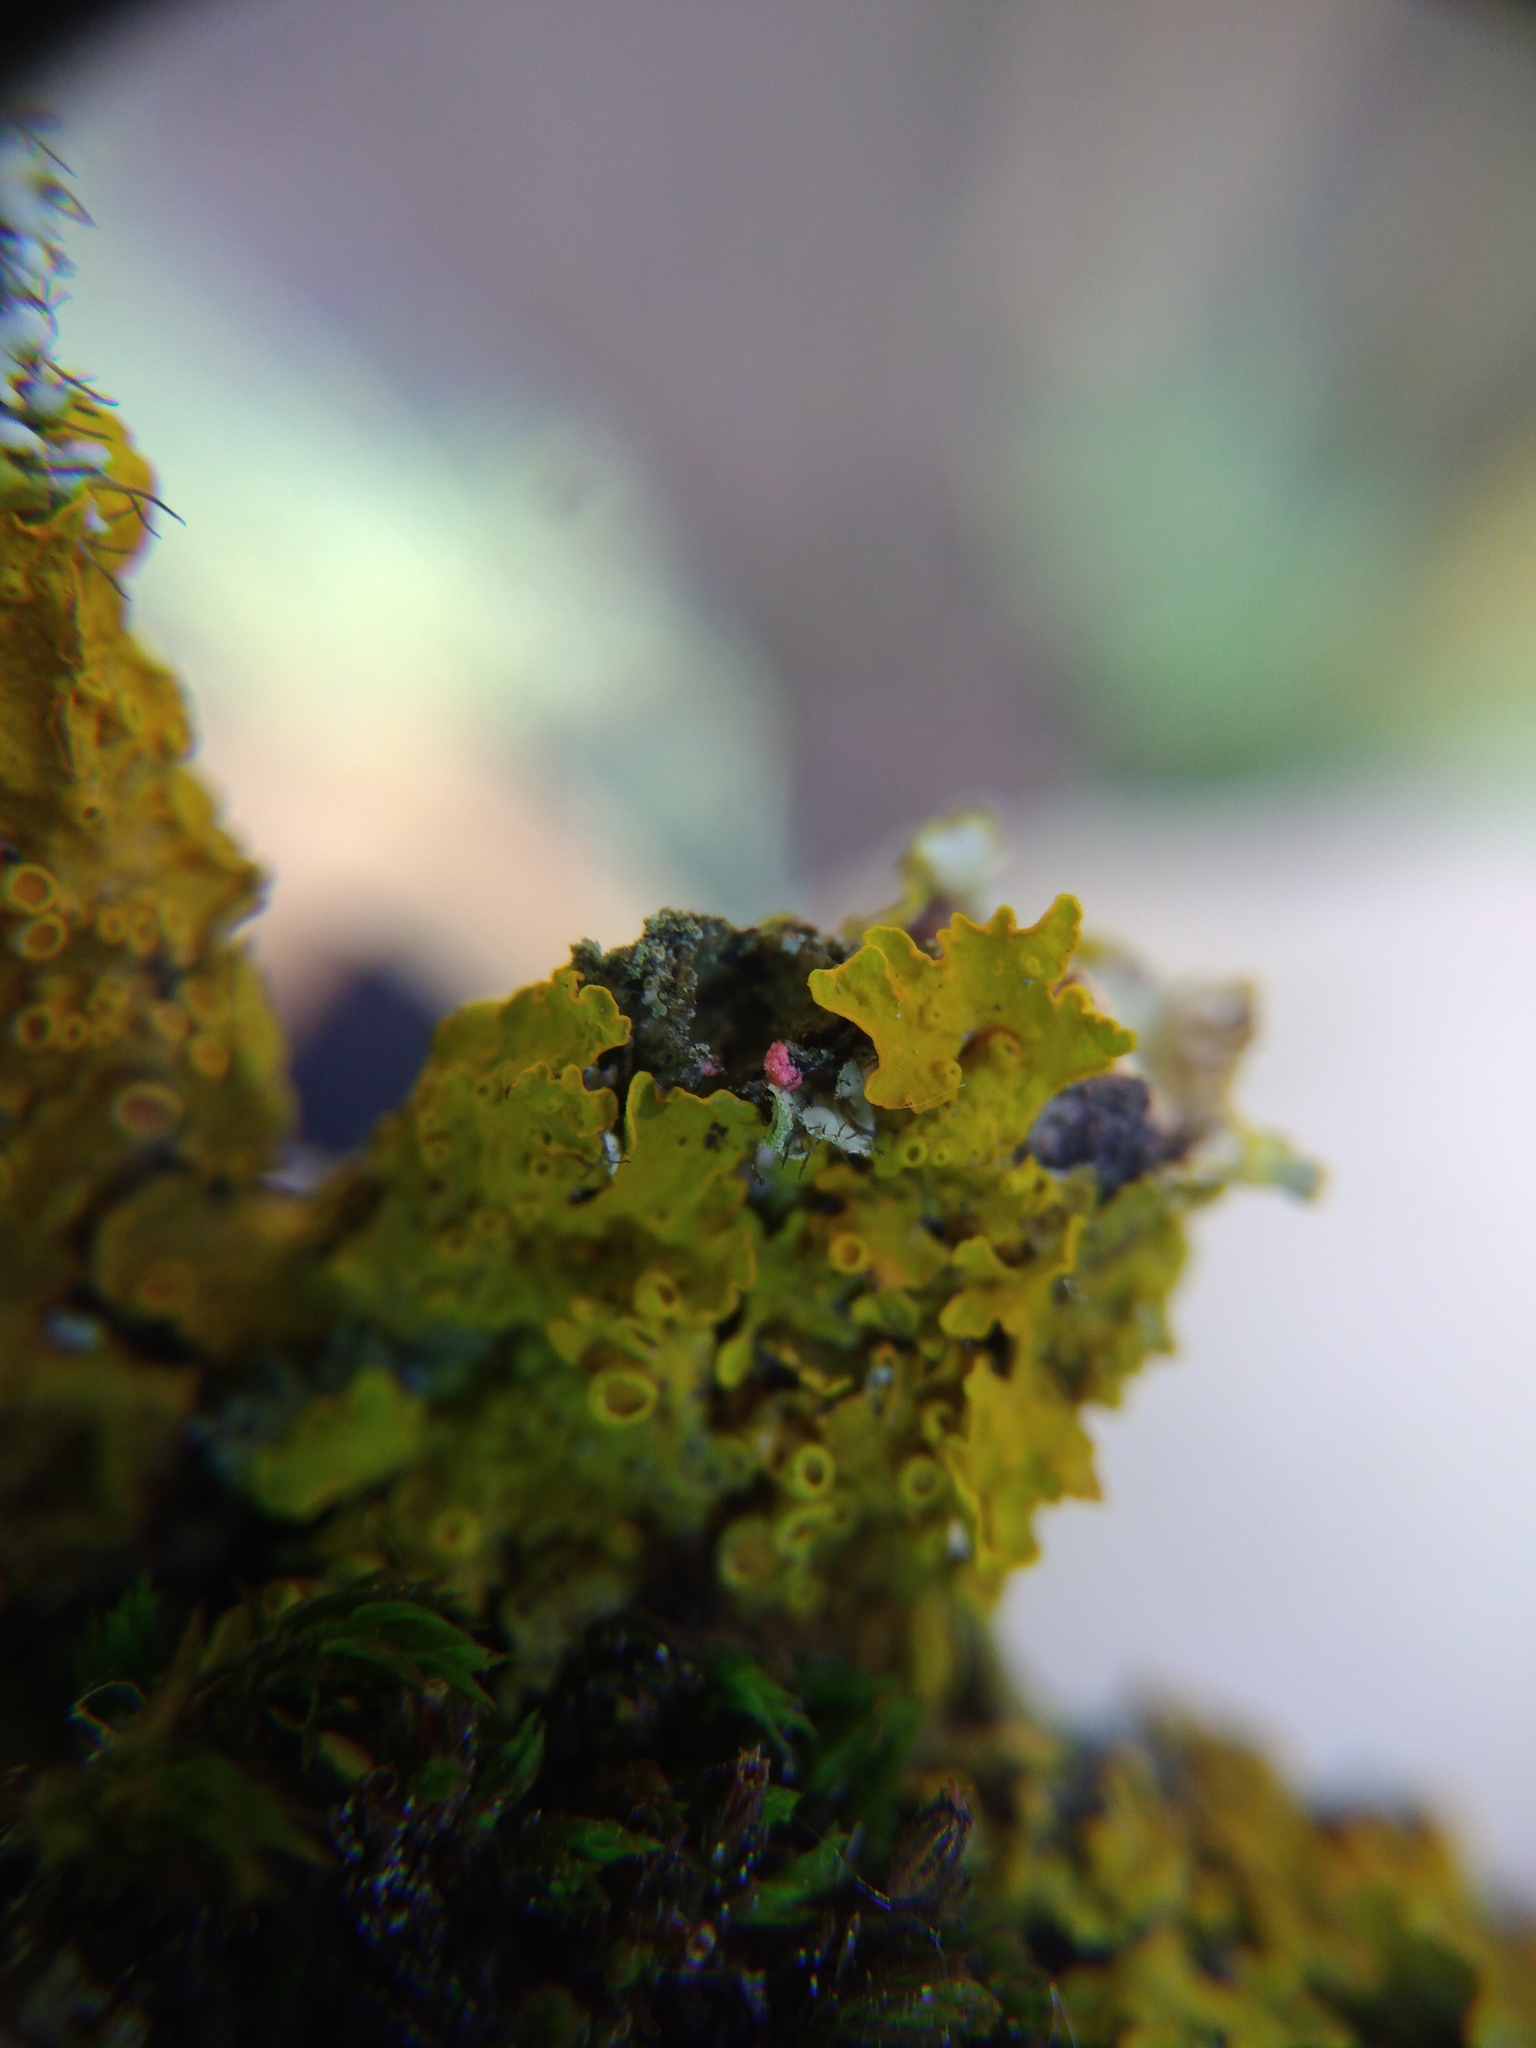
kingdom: Fungi
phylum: Ascomycota
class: Sordariomycetes
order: Hypocreales
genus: Illosporiopsis
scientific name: Illosporiopsis christiansenii
